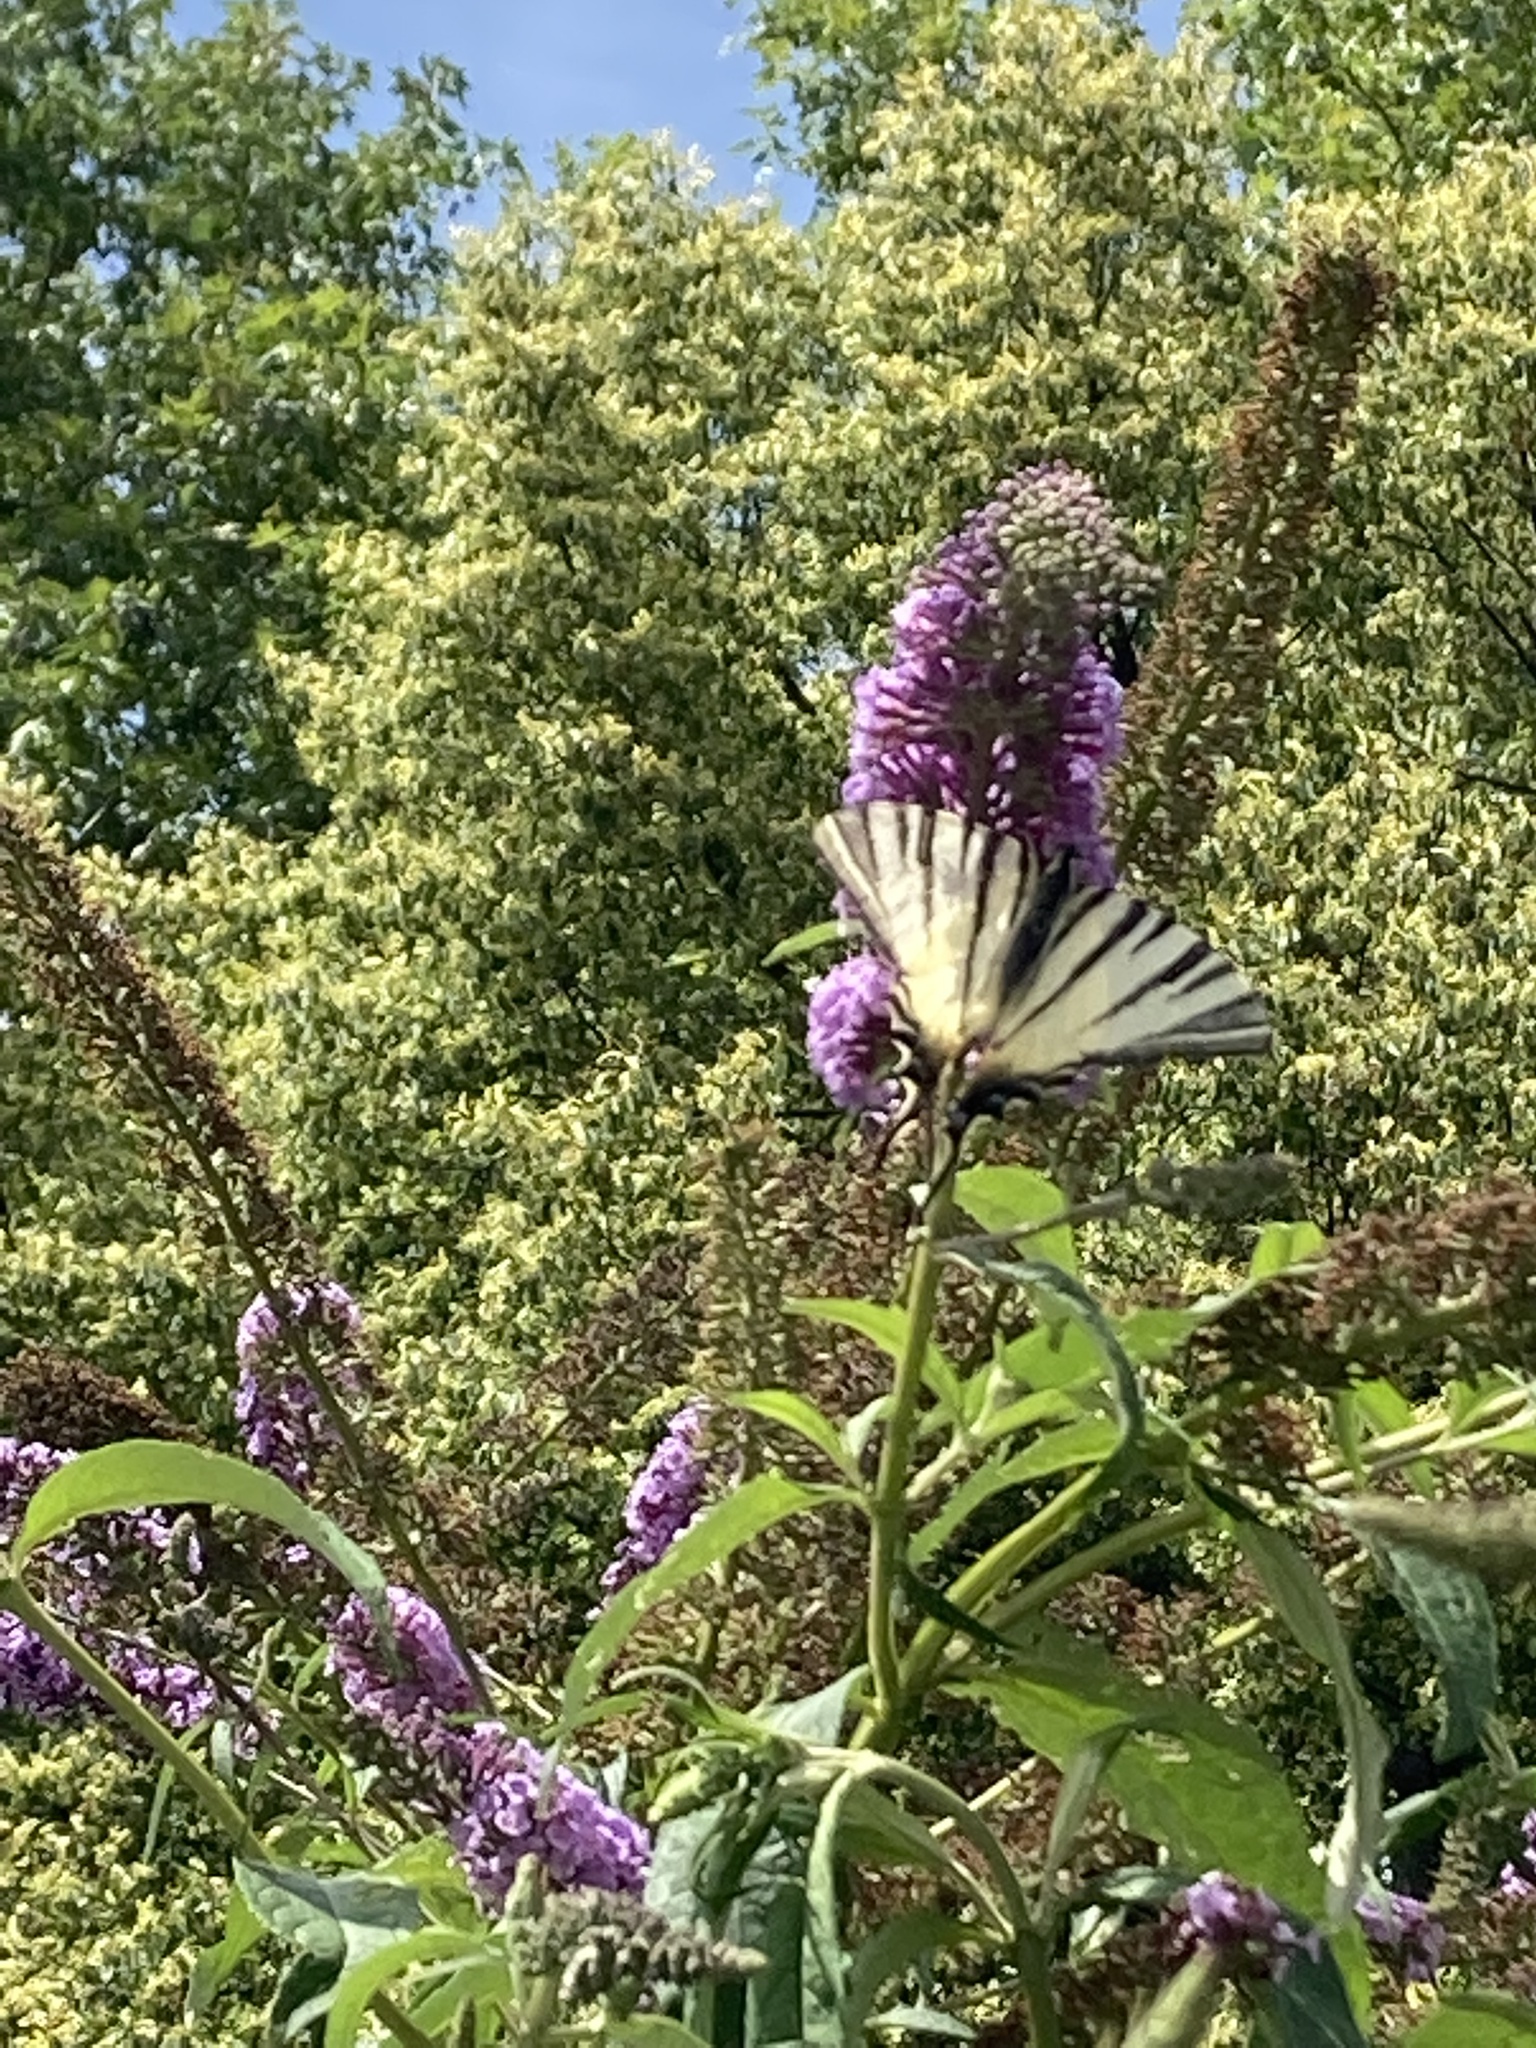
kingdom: Animalia
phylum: Arthropoda
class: Insecta
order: Lepidoptera
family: Papilionidae
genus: Iphiclides
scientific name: Iphiclides podalirius
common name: Scarce swallowtail
